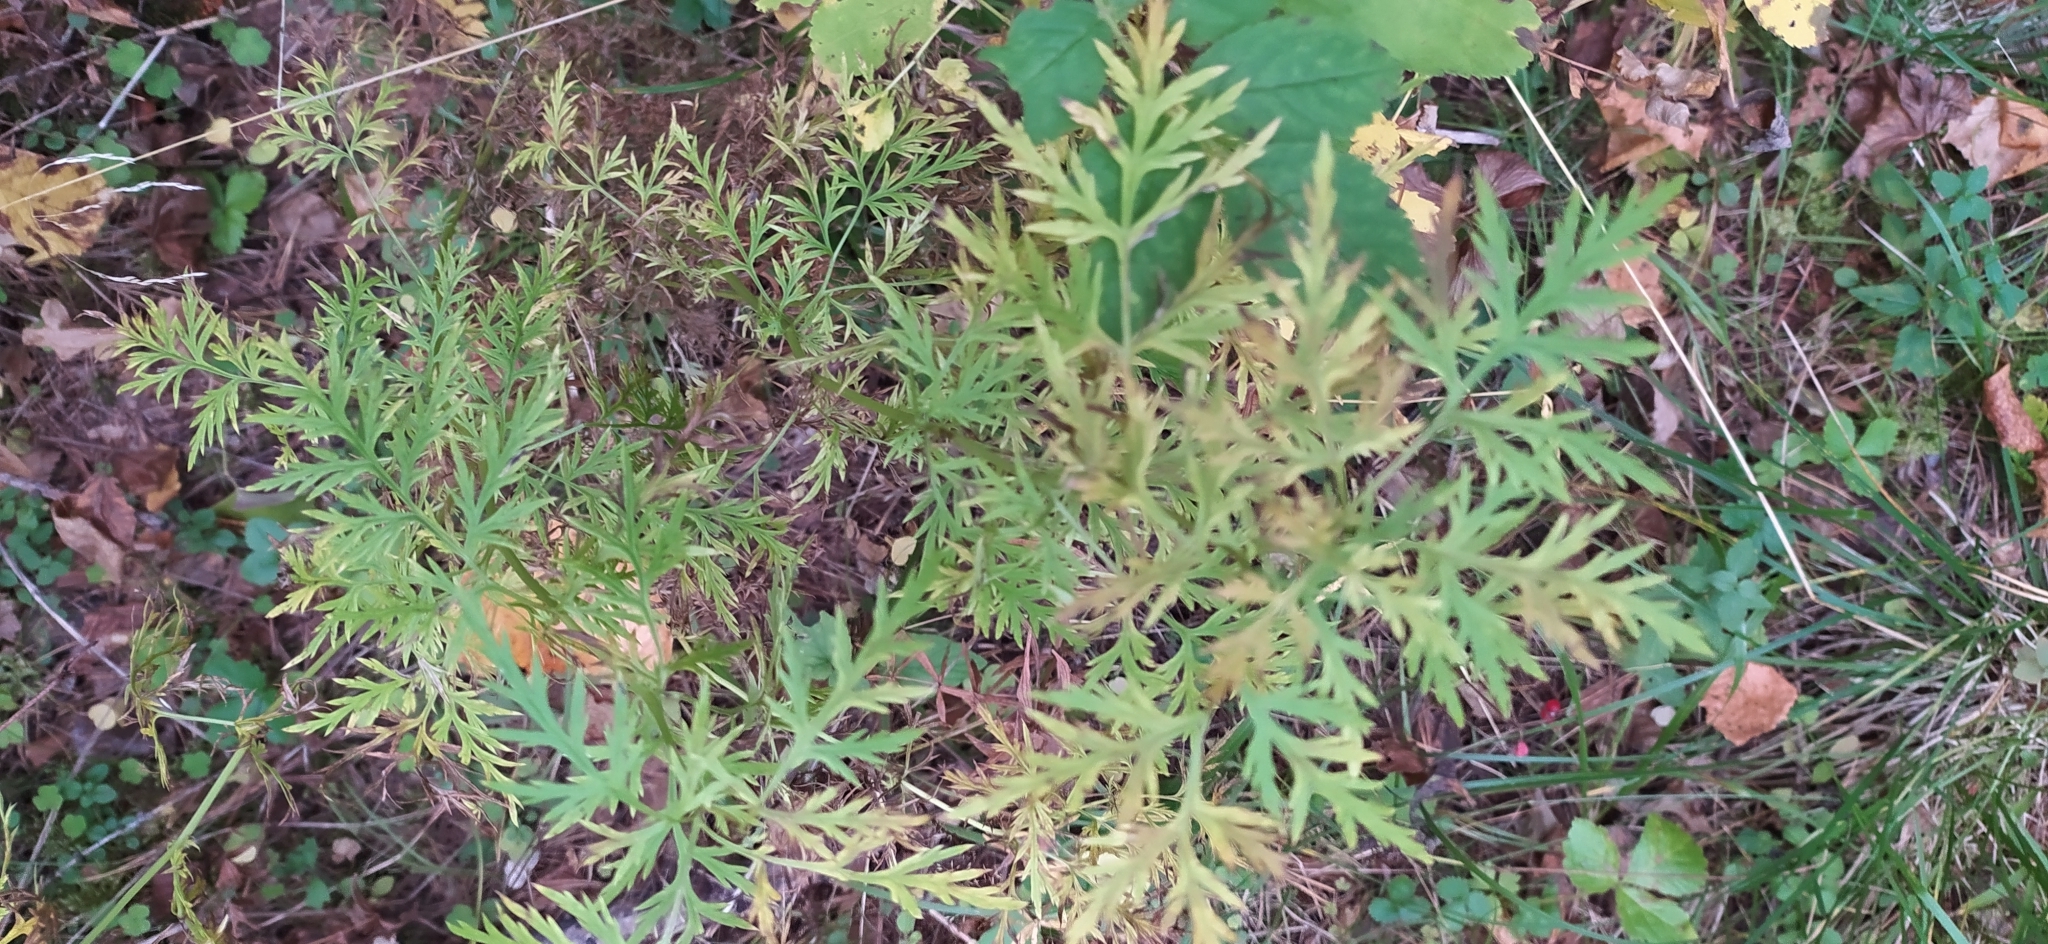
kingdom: Plantae
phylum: Tracheophyta
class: Magnoliopsida
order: Ranunculales
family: Ranunculaceae
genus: Adonis
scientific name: Adonis
